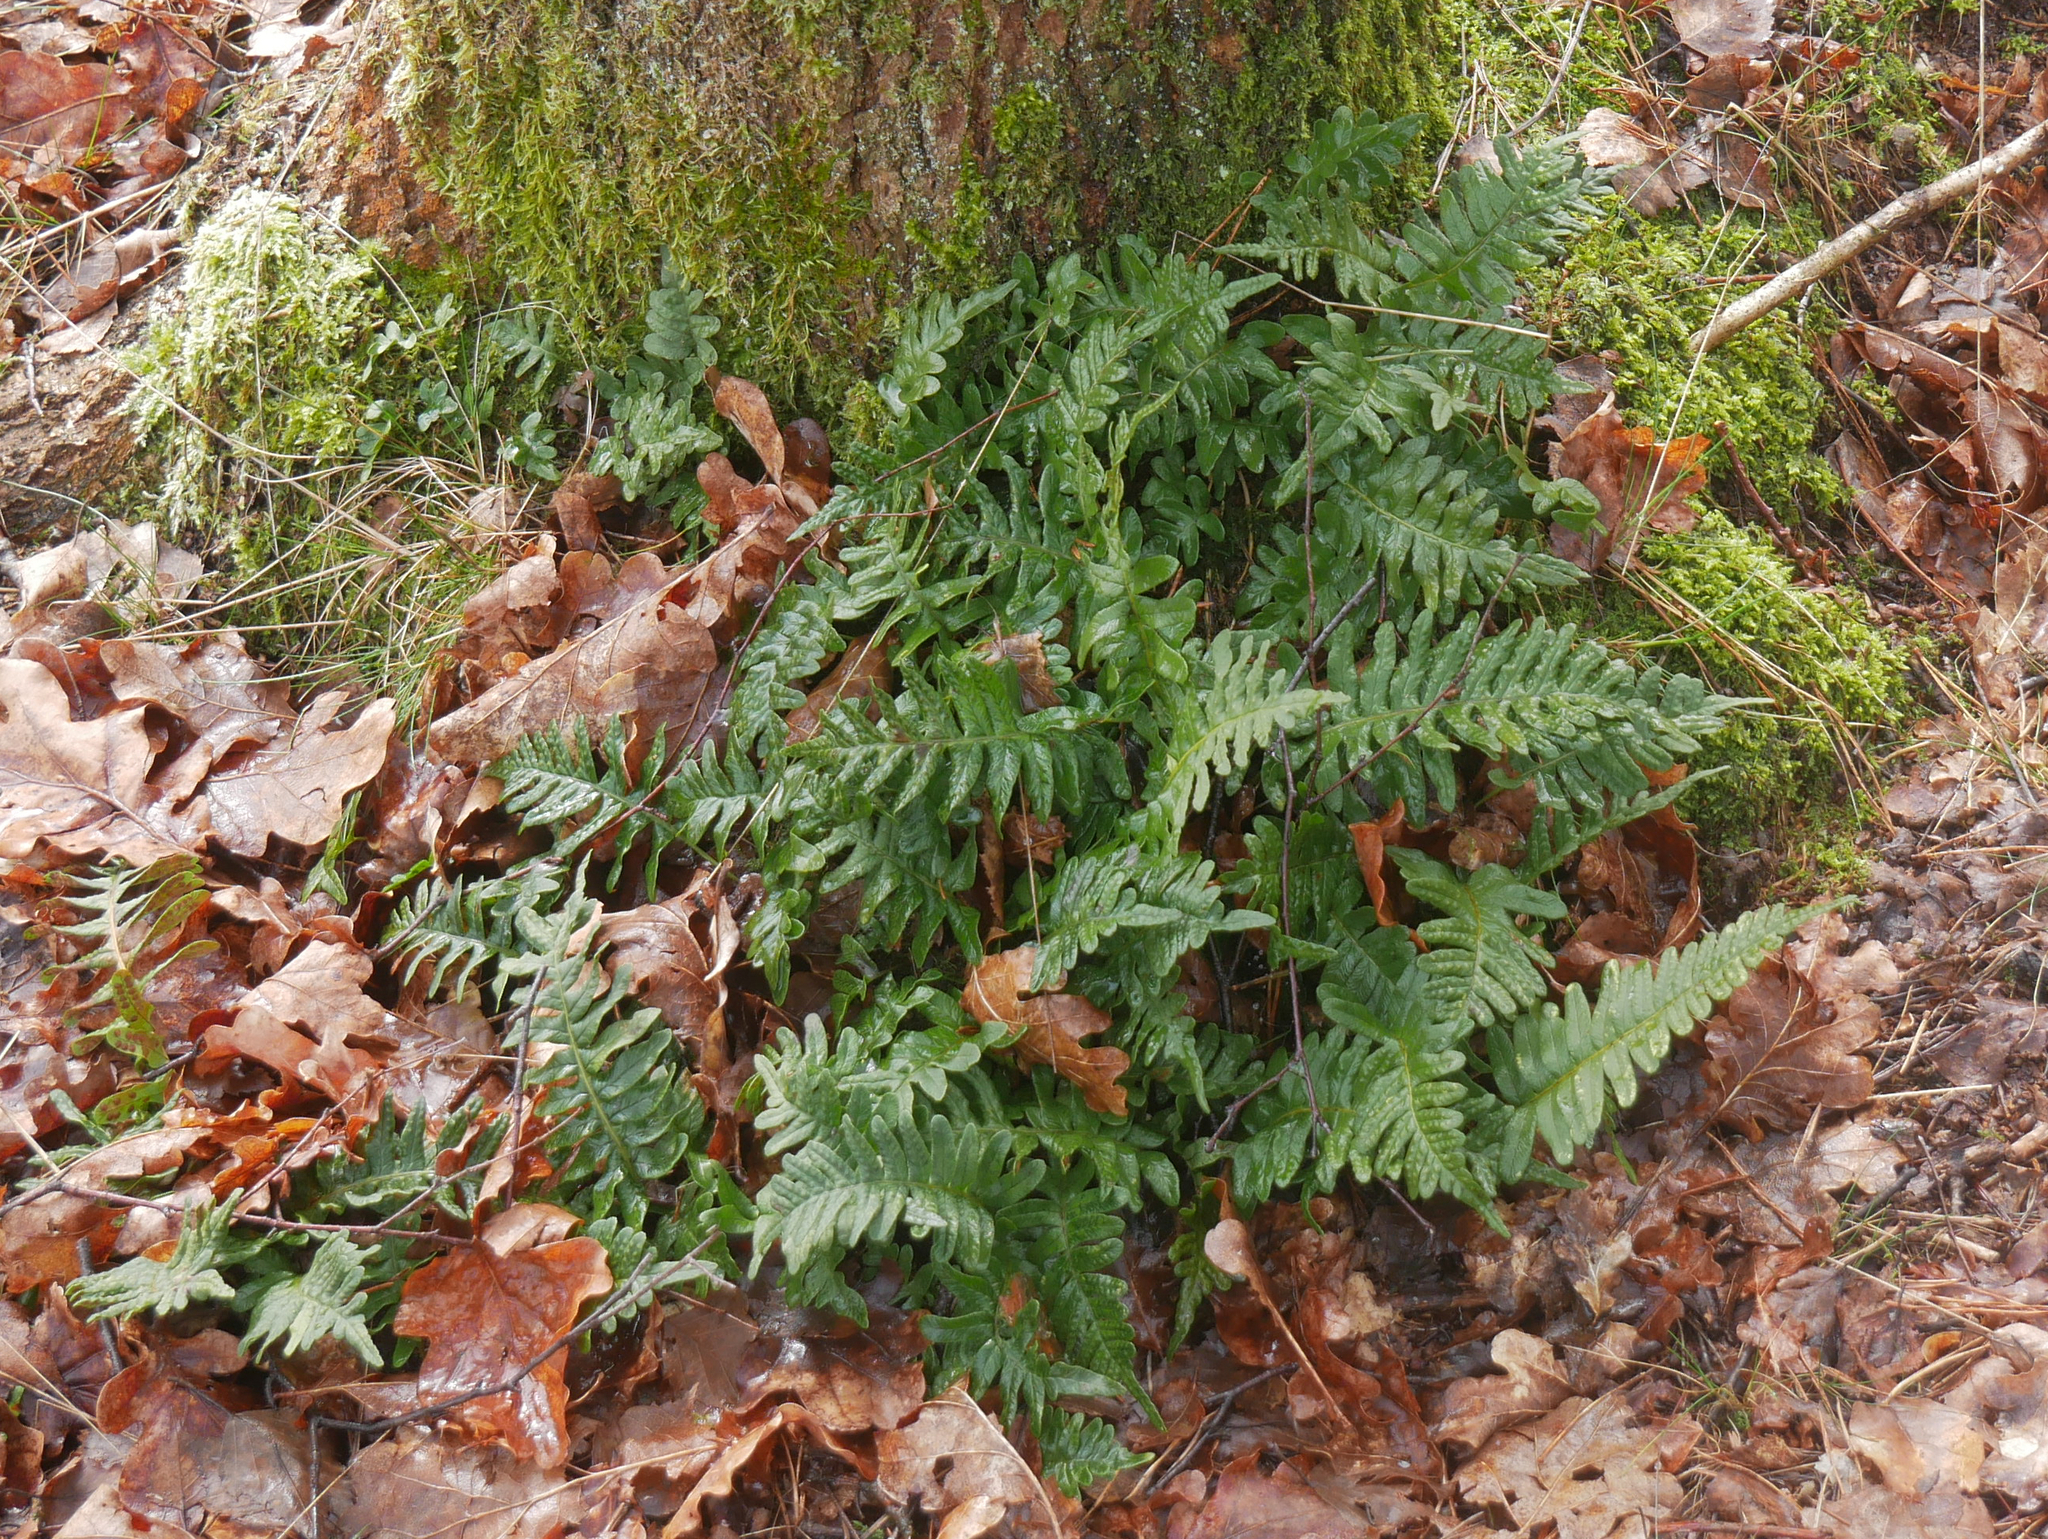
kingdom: Plantae
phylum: Tracheophyta
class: Polypodiopsida
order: Polypodiales
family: Polypodiaceae
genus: Polypodium
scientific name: Polypodium vulgare
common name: Common polypody
